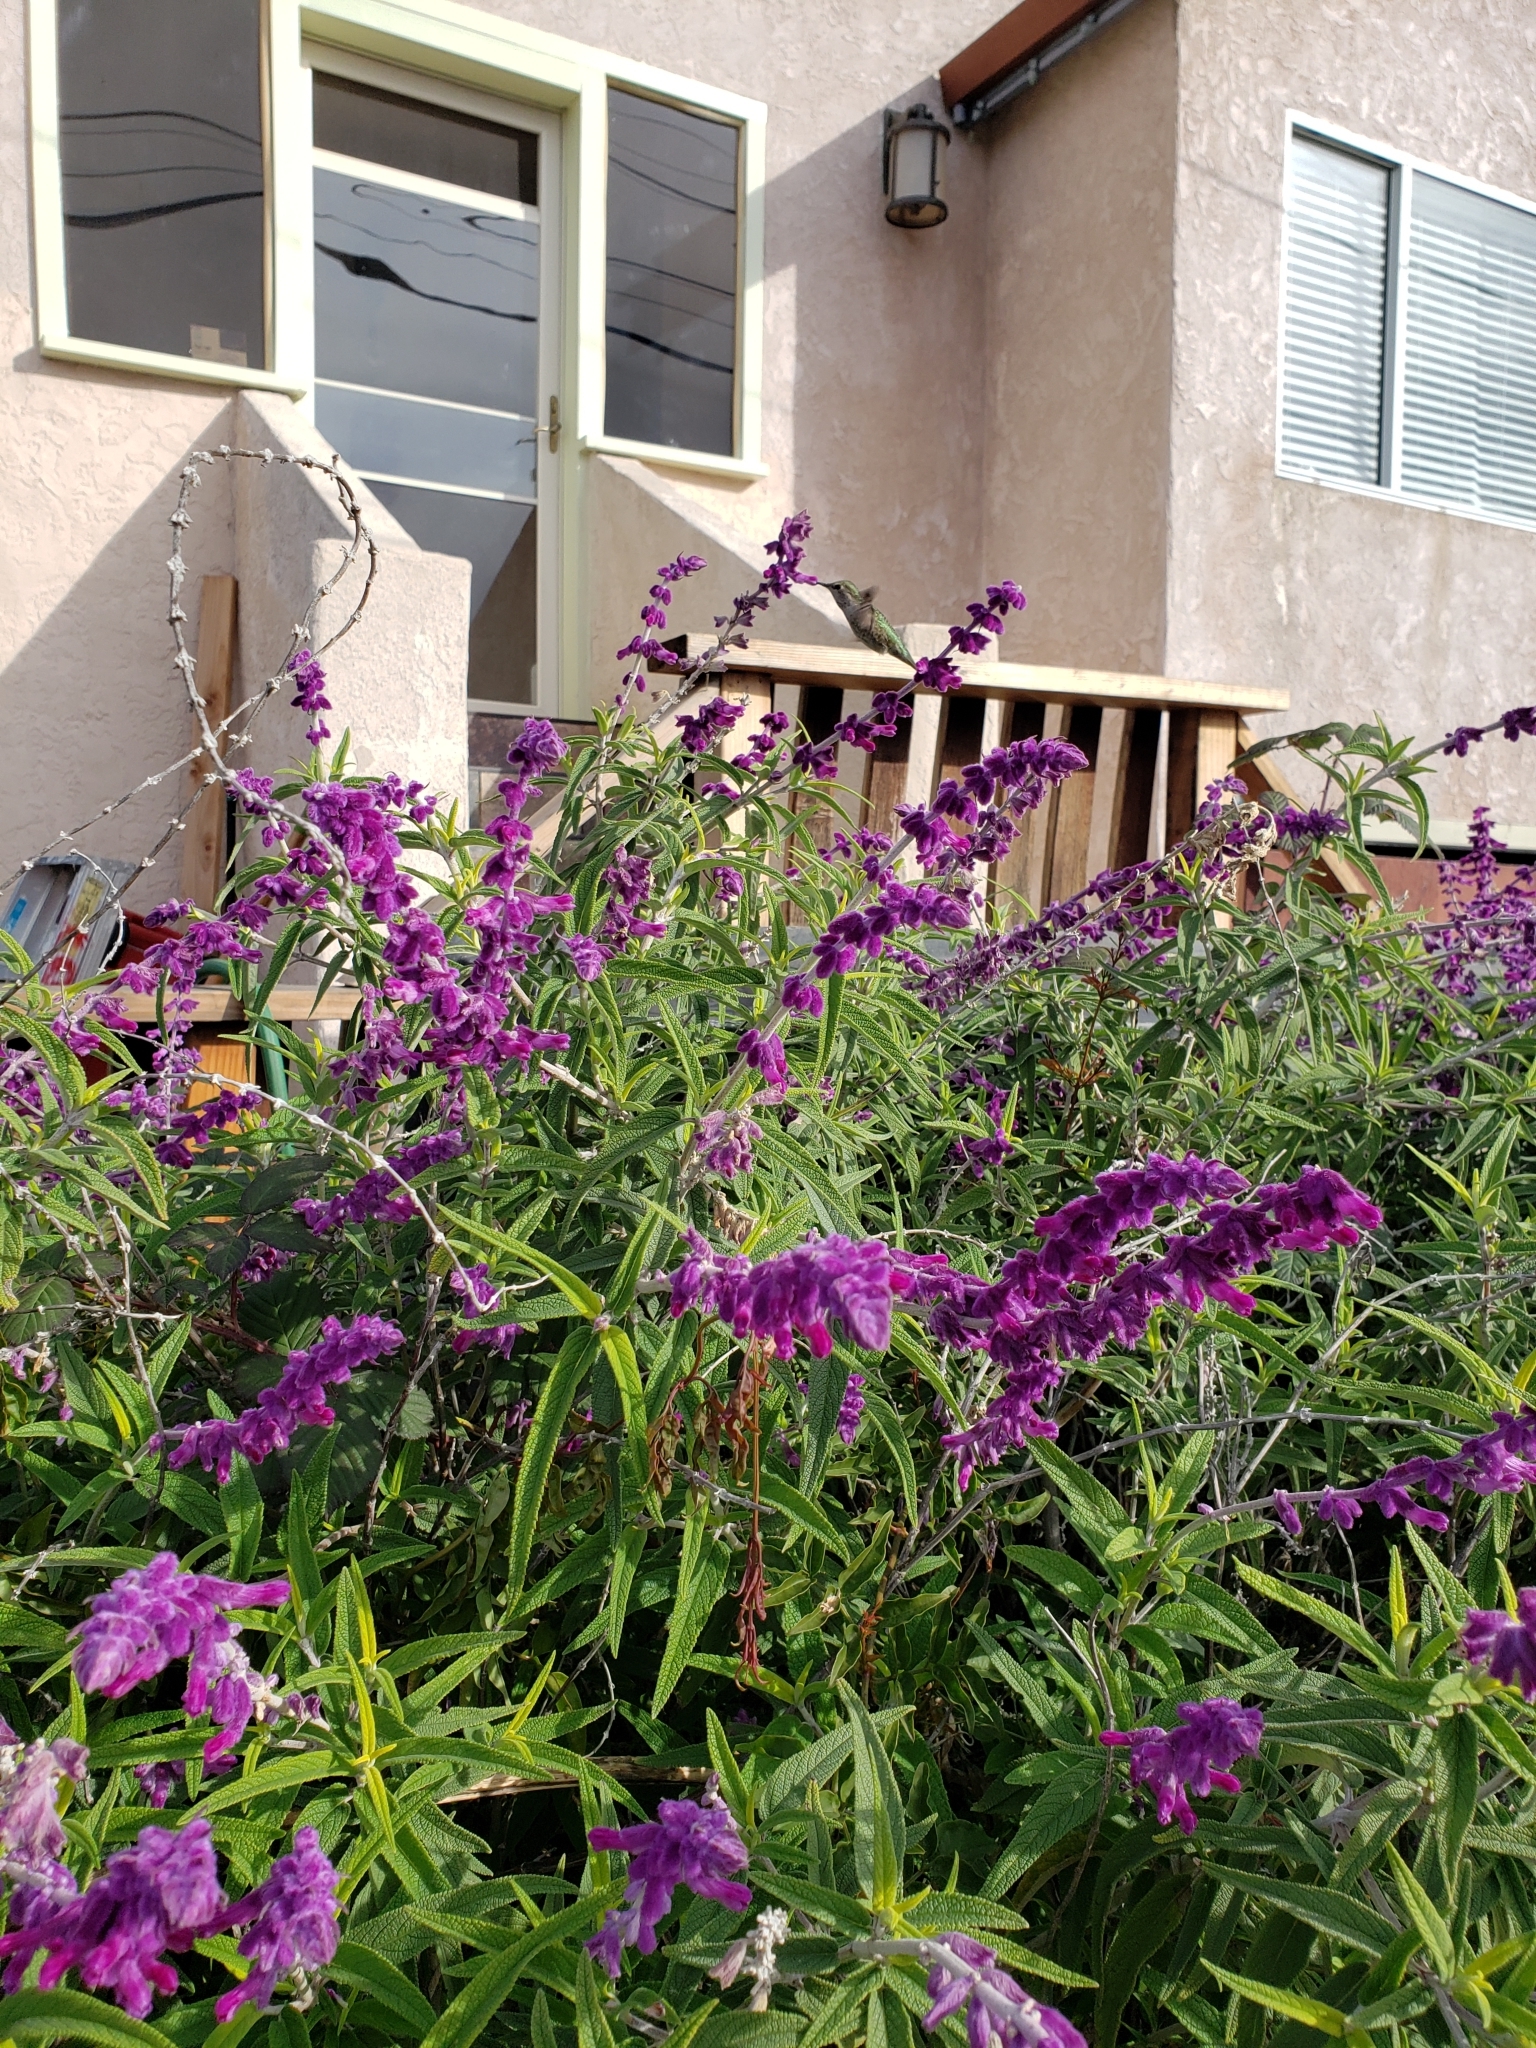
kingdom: Animalia
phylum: Chordata
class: Aves
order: Apodiformes
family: Trochilidae
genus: Calypte
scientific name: Calypte anna
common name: Anna's hummingbird
